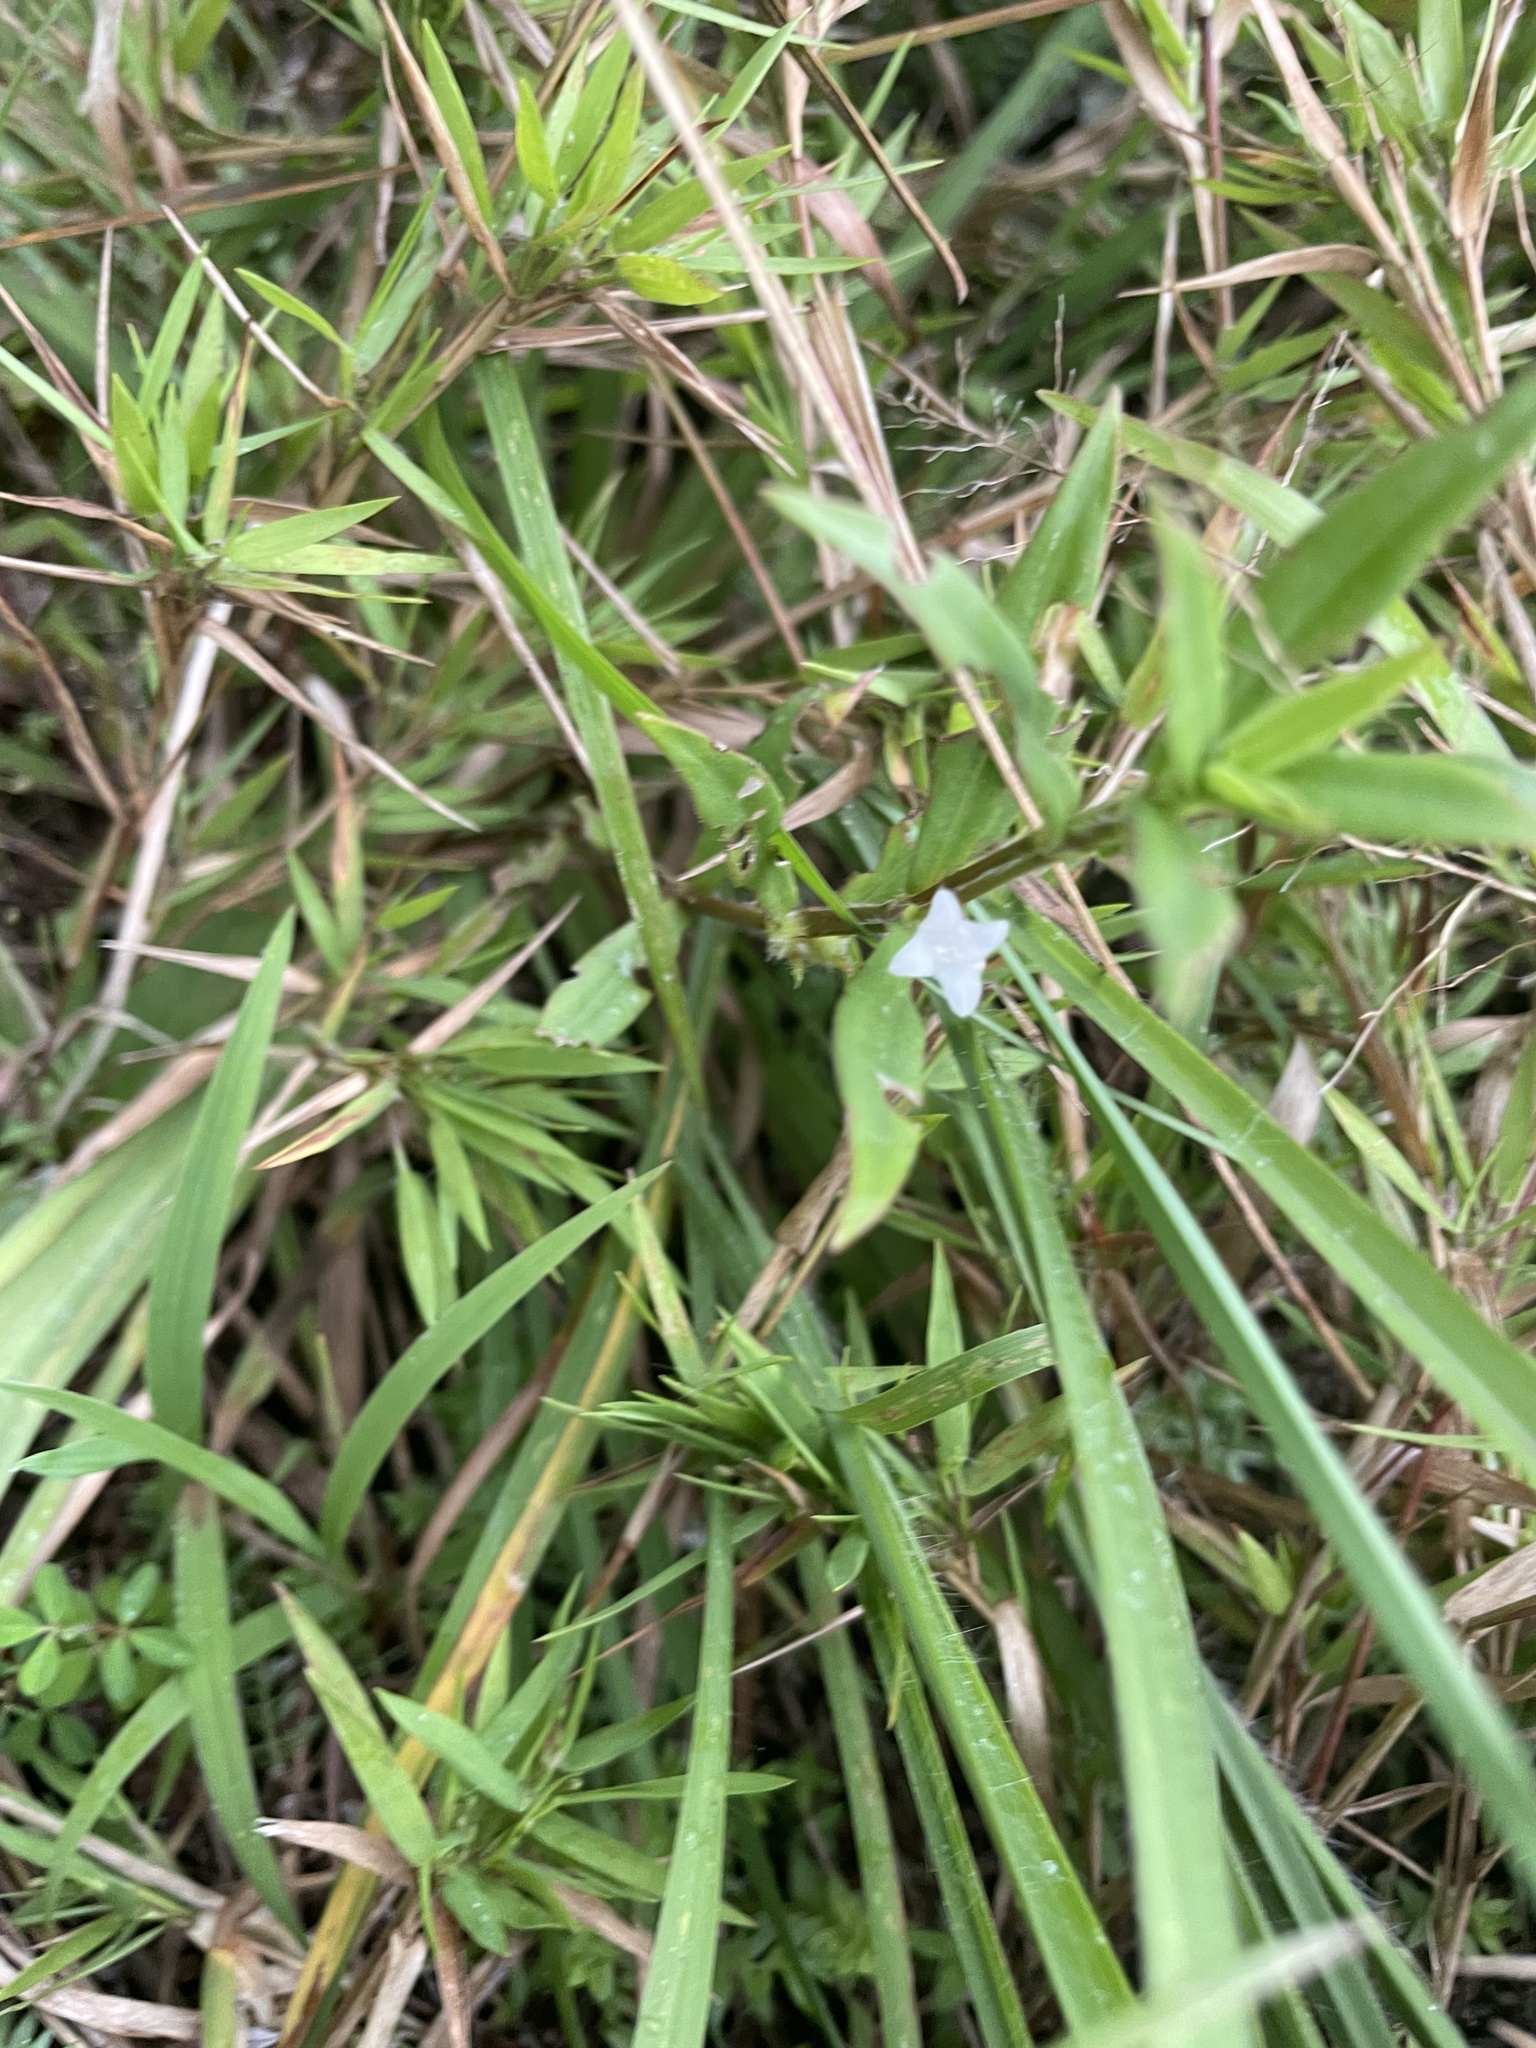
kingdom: Plantae
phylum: Tracheophyta
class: Magnoliopsida
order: Gentianales
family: Rubiaceae
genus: Diodia
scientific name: Diodia virginiana
